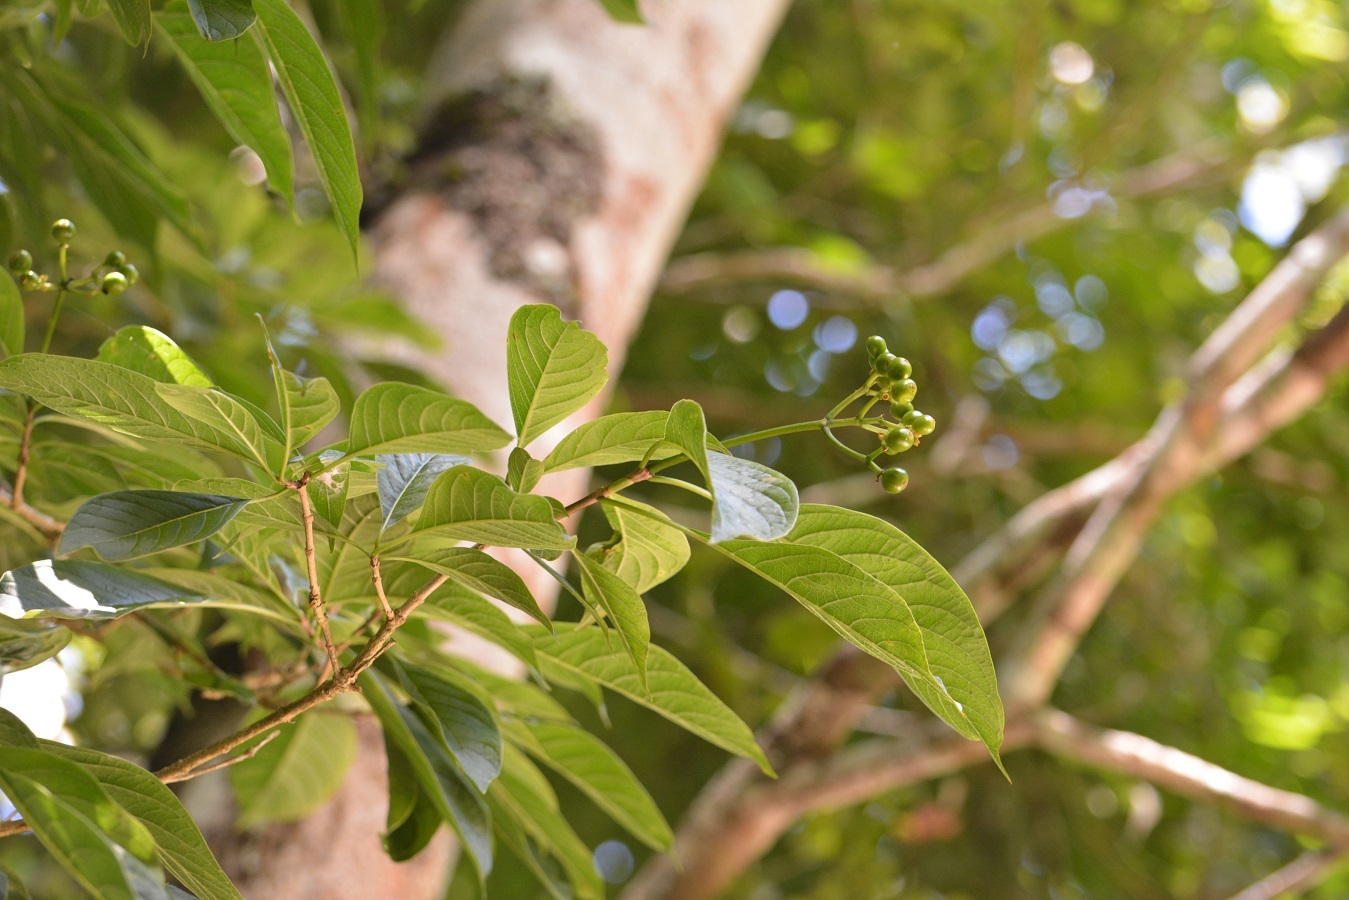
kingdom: Plantae
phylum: Tracheophyta
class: Magnoliopsida
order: Gentianales
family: Rubiaceae
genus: Coussarea
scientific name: Coussarea chiapensis
